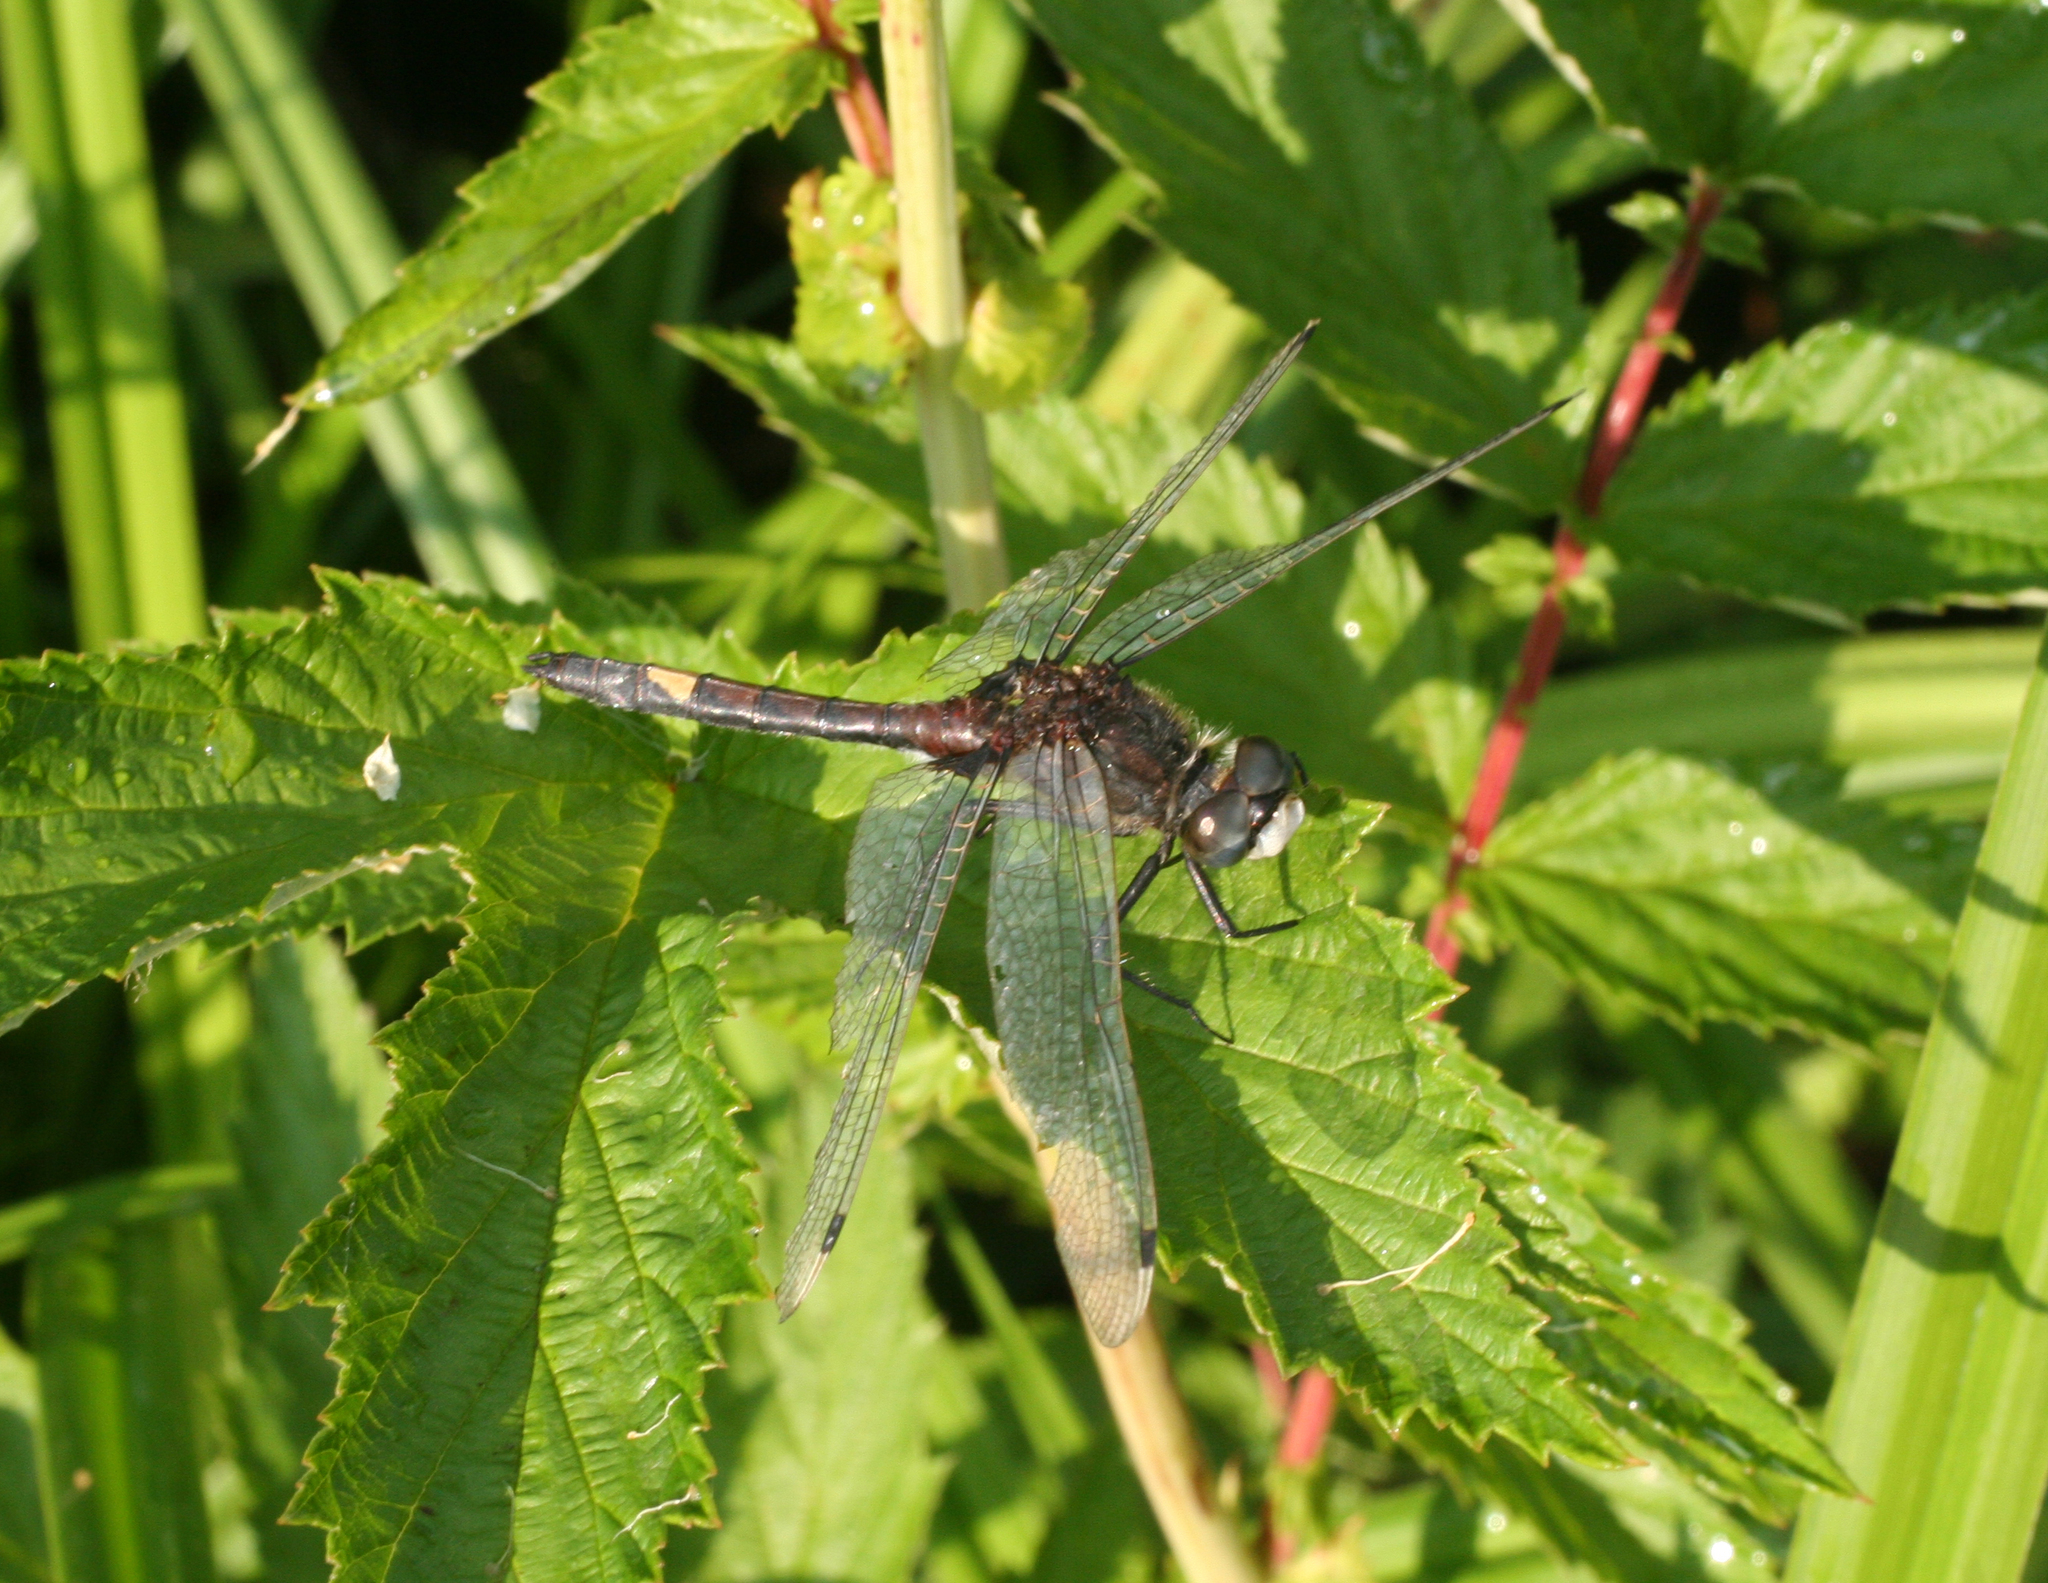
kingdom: Animalia
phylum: Arthropoda
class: Insecta
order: Odonata
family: Libellulidae
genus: Leucorrhinia
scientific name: Leucorrhinia pectoralis
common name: Yellow-spotted whiteface
